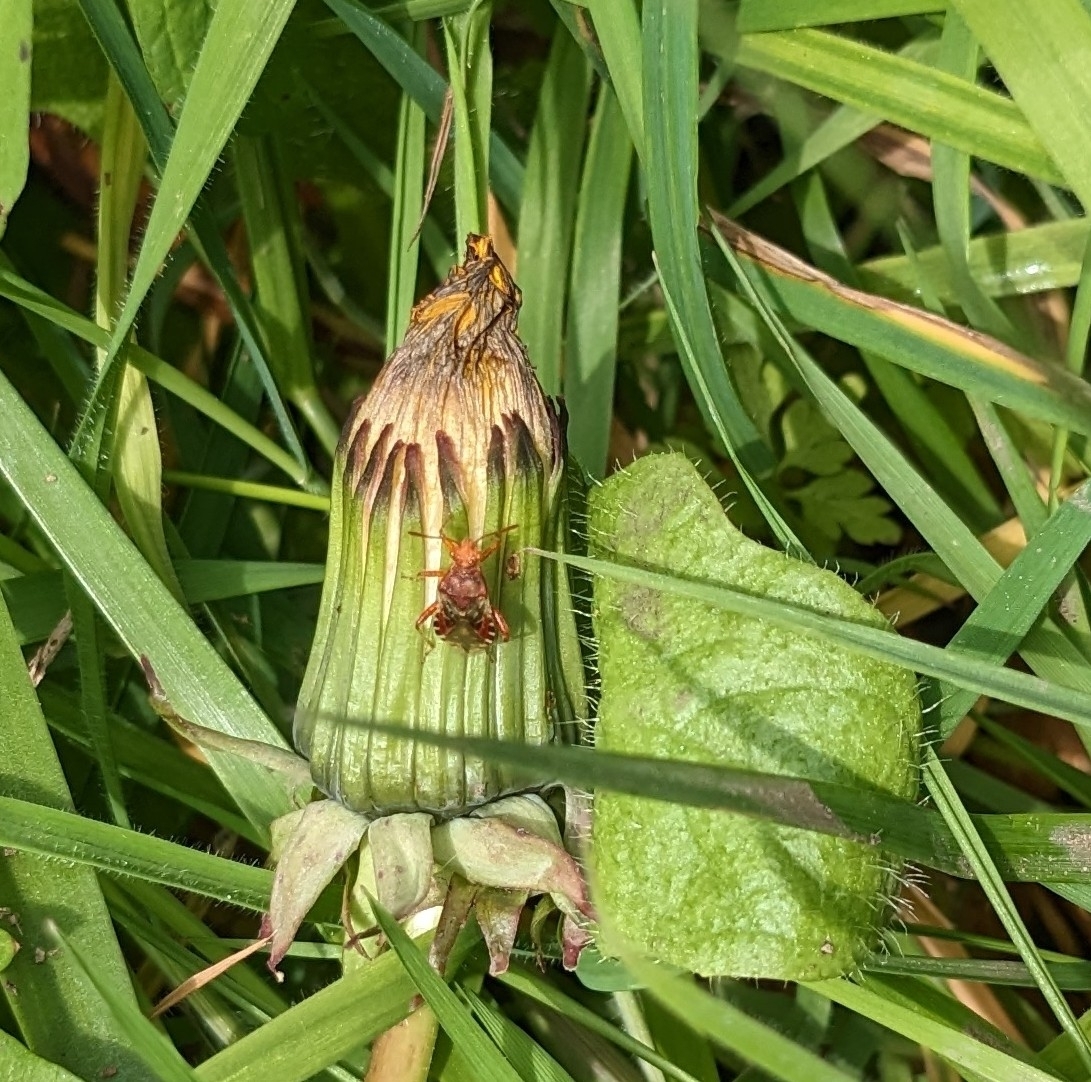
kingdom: Animalia
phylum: Arthropoda
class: Insecta
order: Hemiptera
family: Rhopalidae
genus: Rhopalus
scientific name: Rhopalus subrufus
